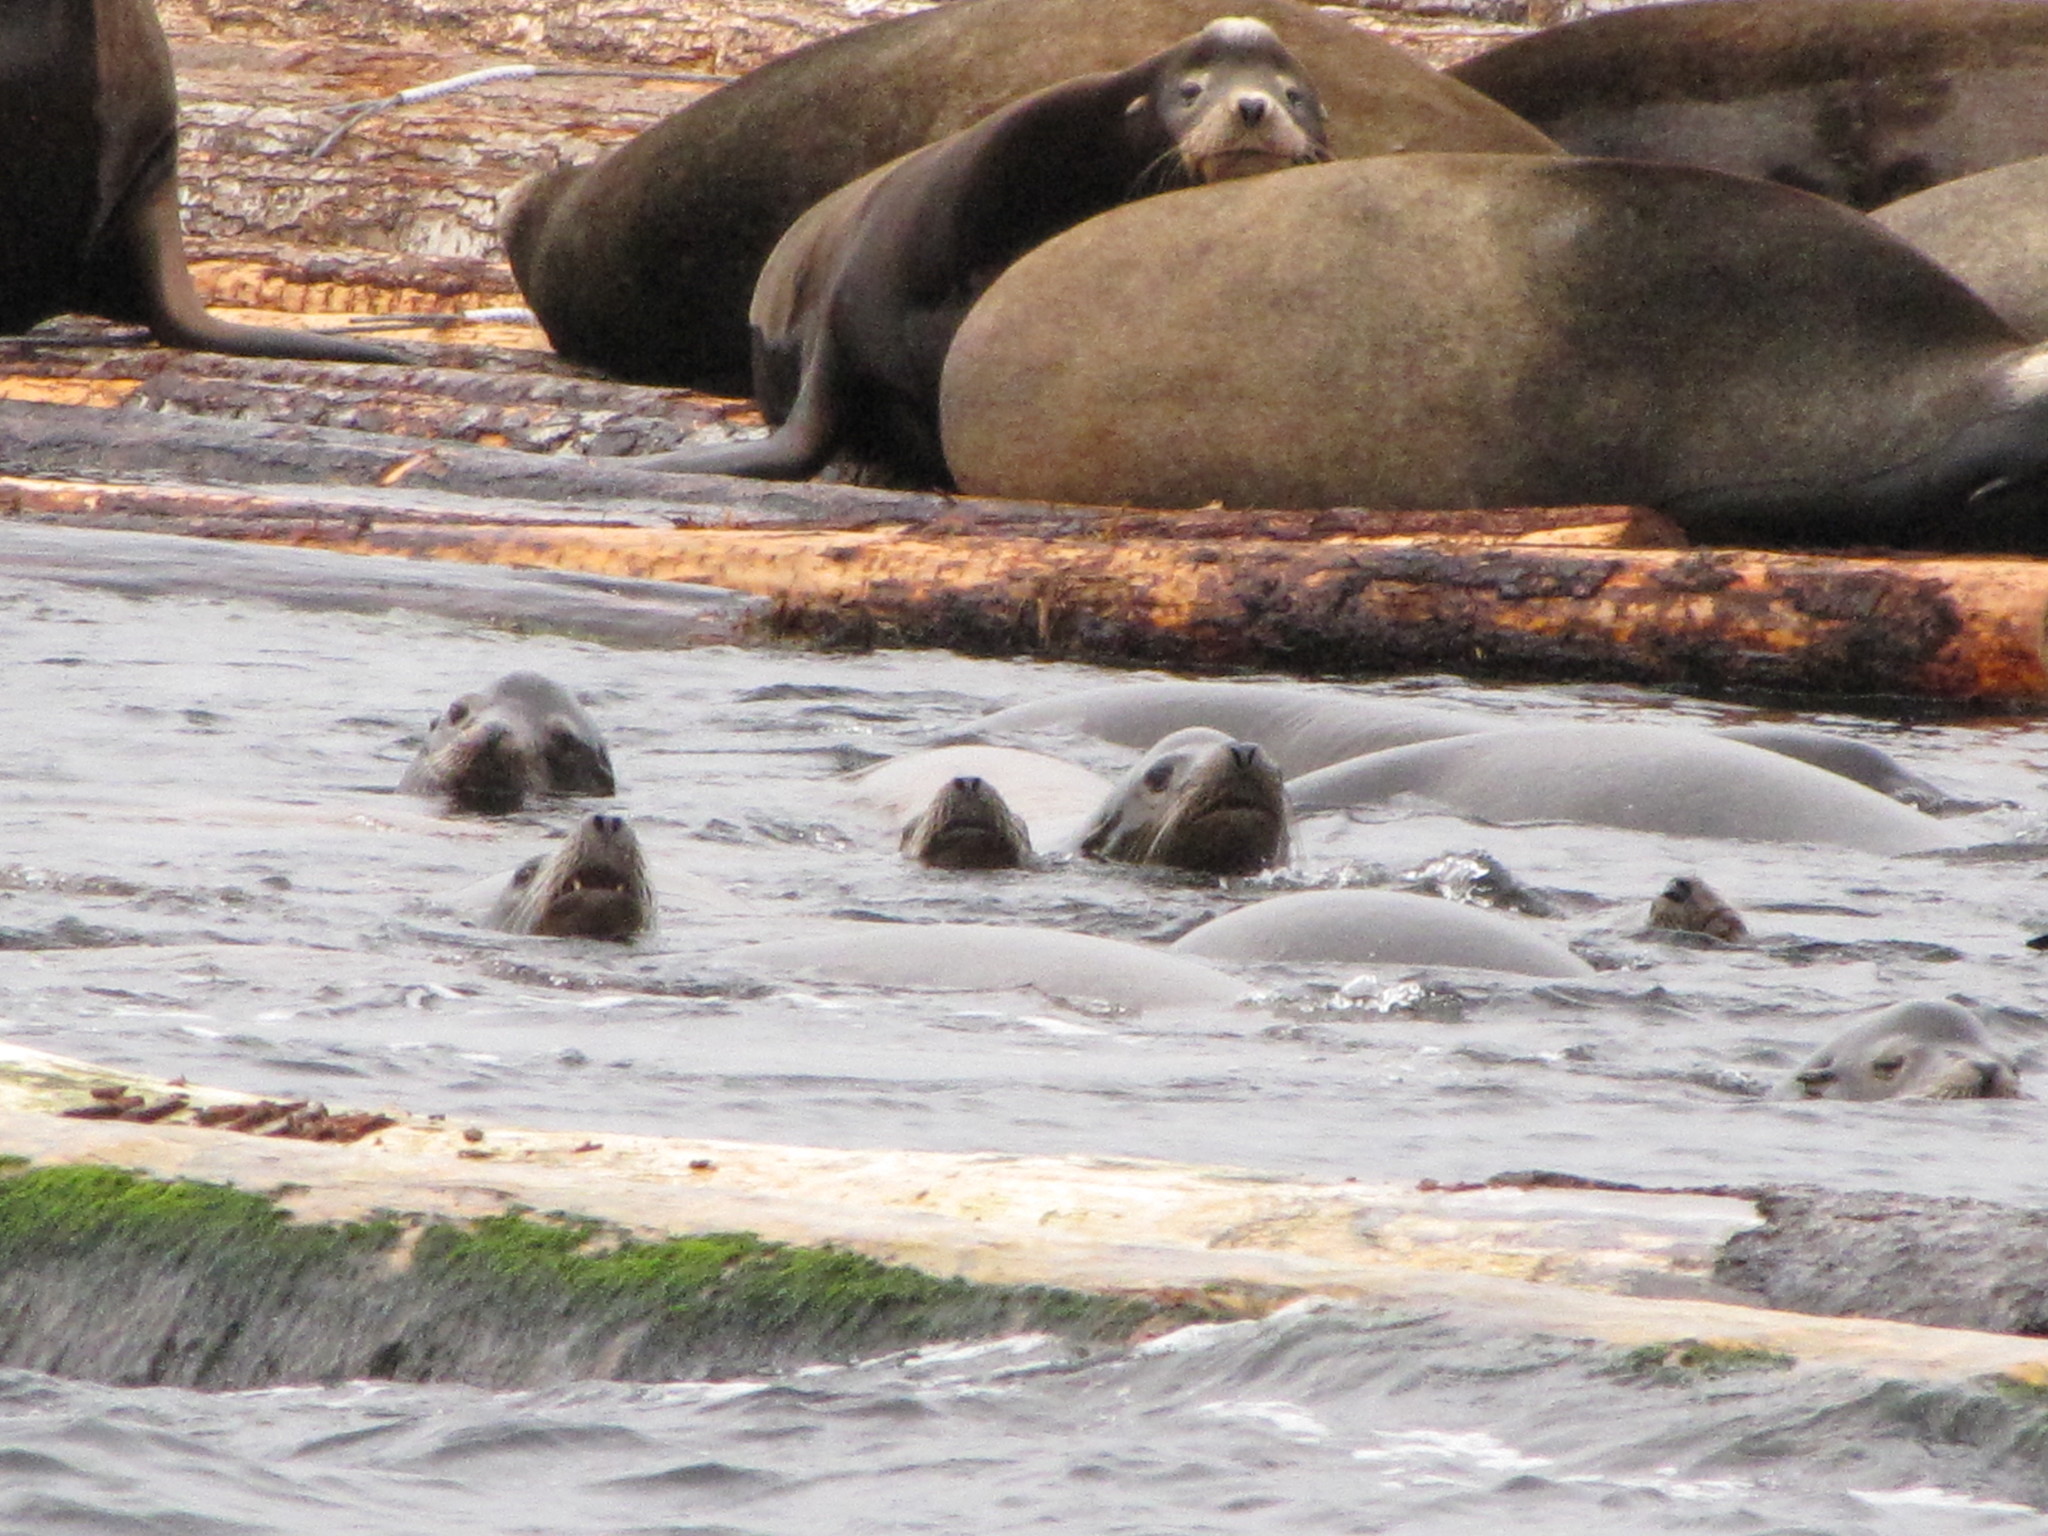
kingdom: Animalia
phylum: Chordata
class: Mammalia
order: Carnivora
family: Otariidae
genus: Zalophus
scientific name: Zalophus californianus
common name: California sea lion
